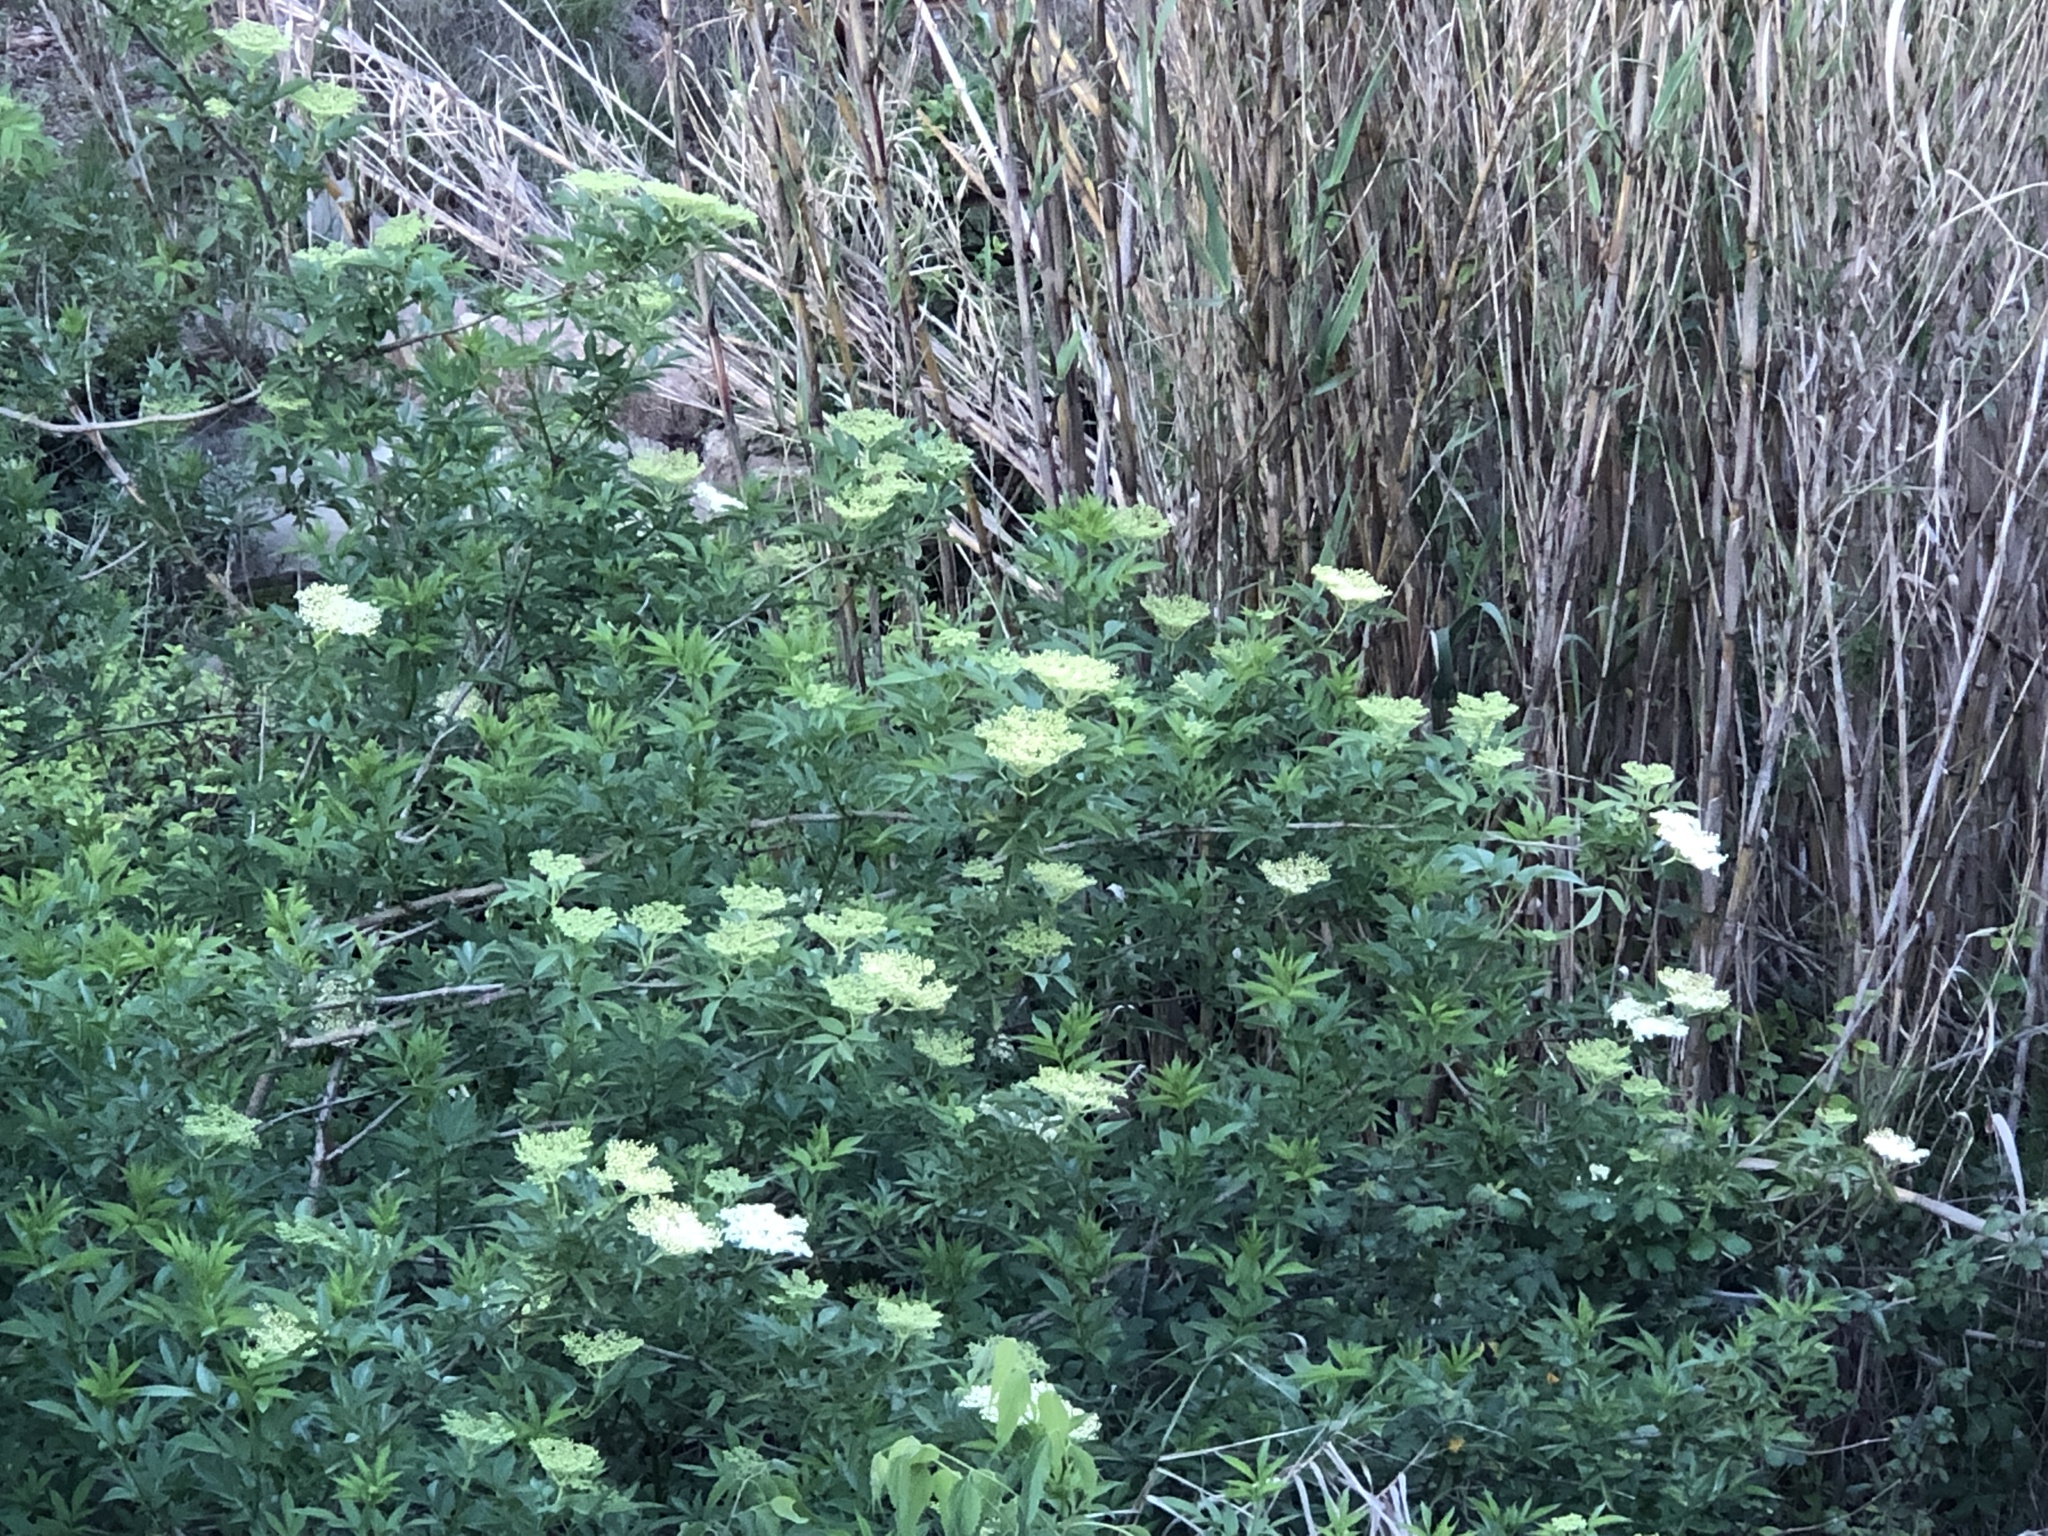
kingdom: Plantae
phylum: Tracheophyta
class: Magnoliopsida
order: Dipsacales
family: Viburnaceae
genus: Sambucus
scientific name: Sambucus nigra
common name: Elder
